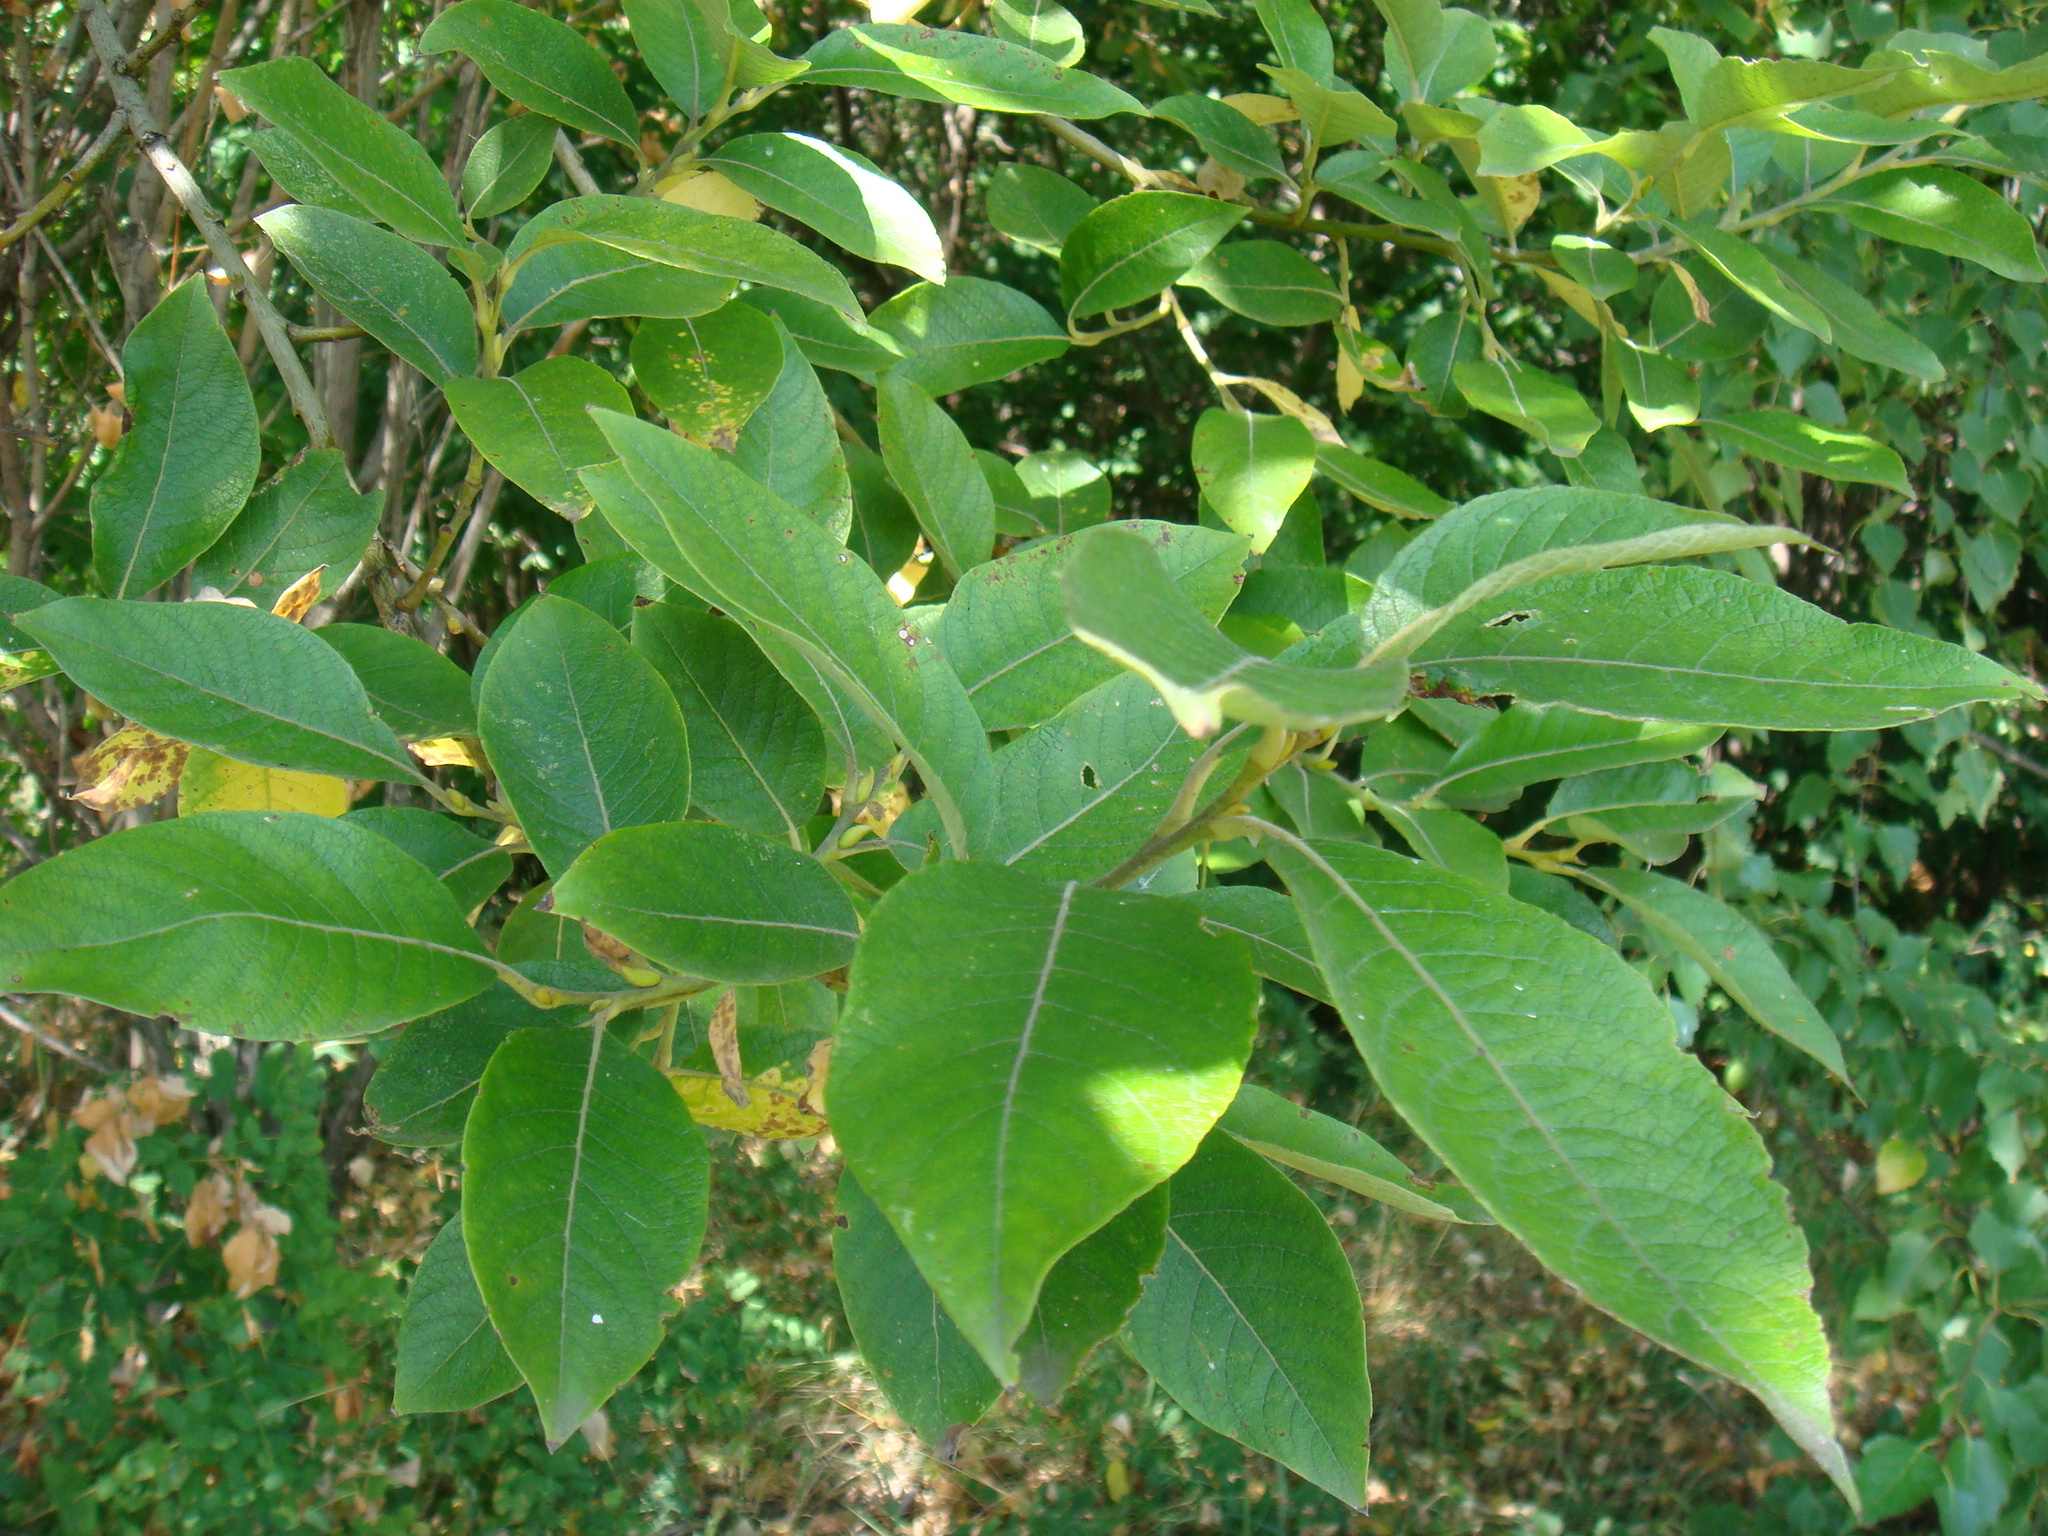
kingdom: Plantae
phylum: Tracheophyta
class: Magnoliopsida
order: Malpighiales
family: Salicaceae
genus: Salix
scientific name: Salix caprea
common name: Goat willow
